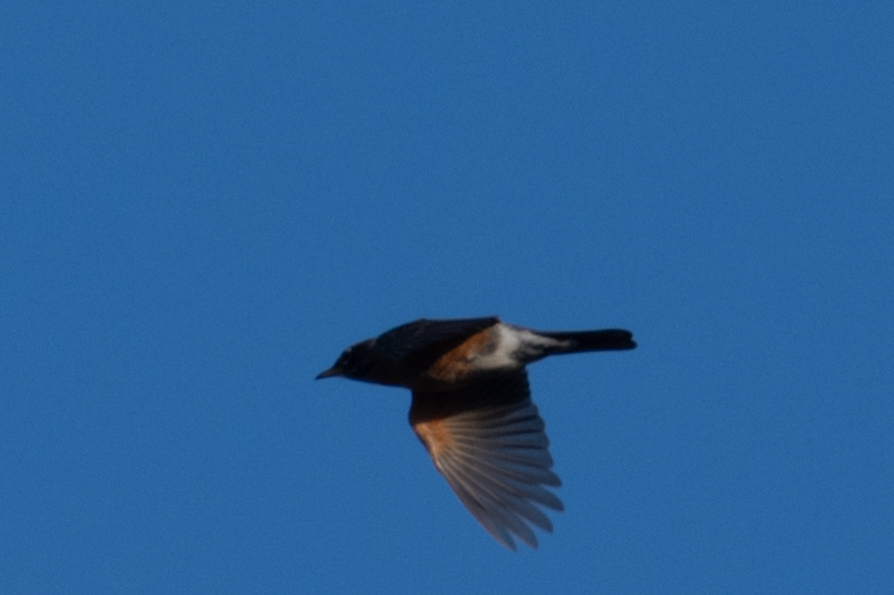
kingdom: Animalia
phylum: Chordata
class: Aves
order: Passeriformes
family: Turdidae
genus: Turdus
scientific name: Turdus migratorius
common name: American robin
